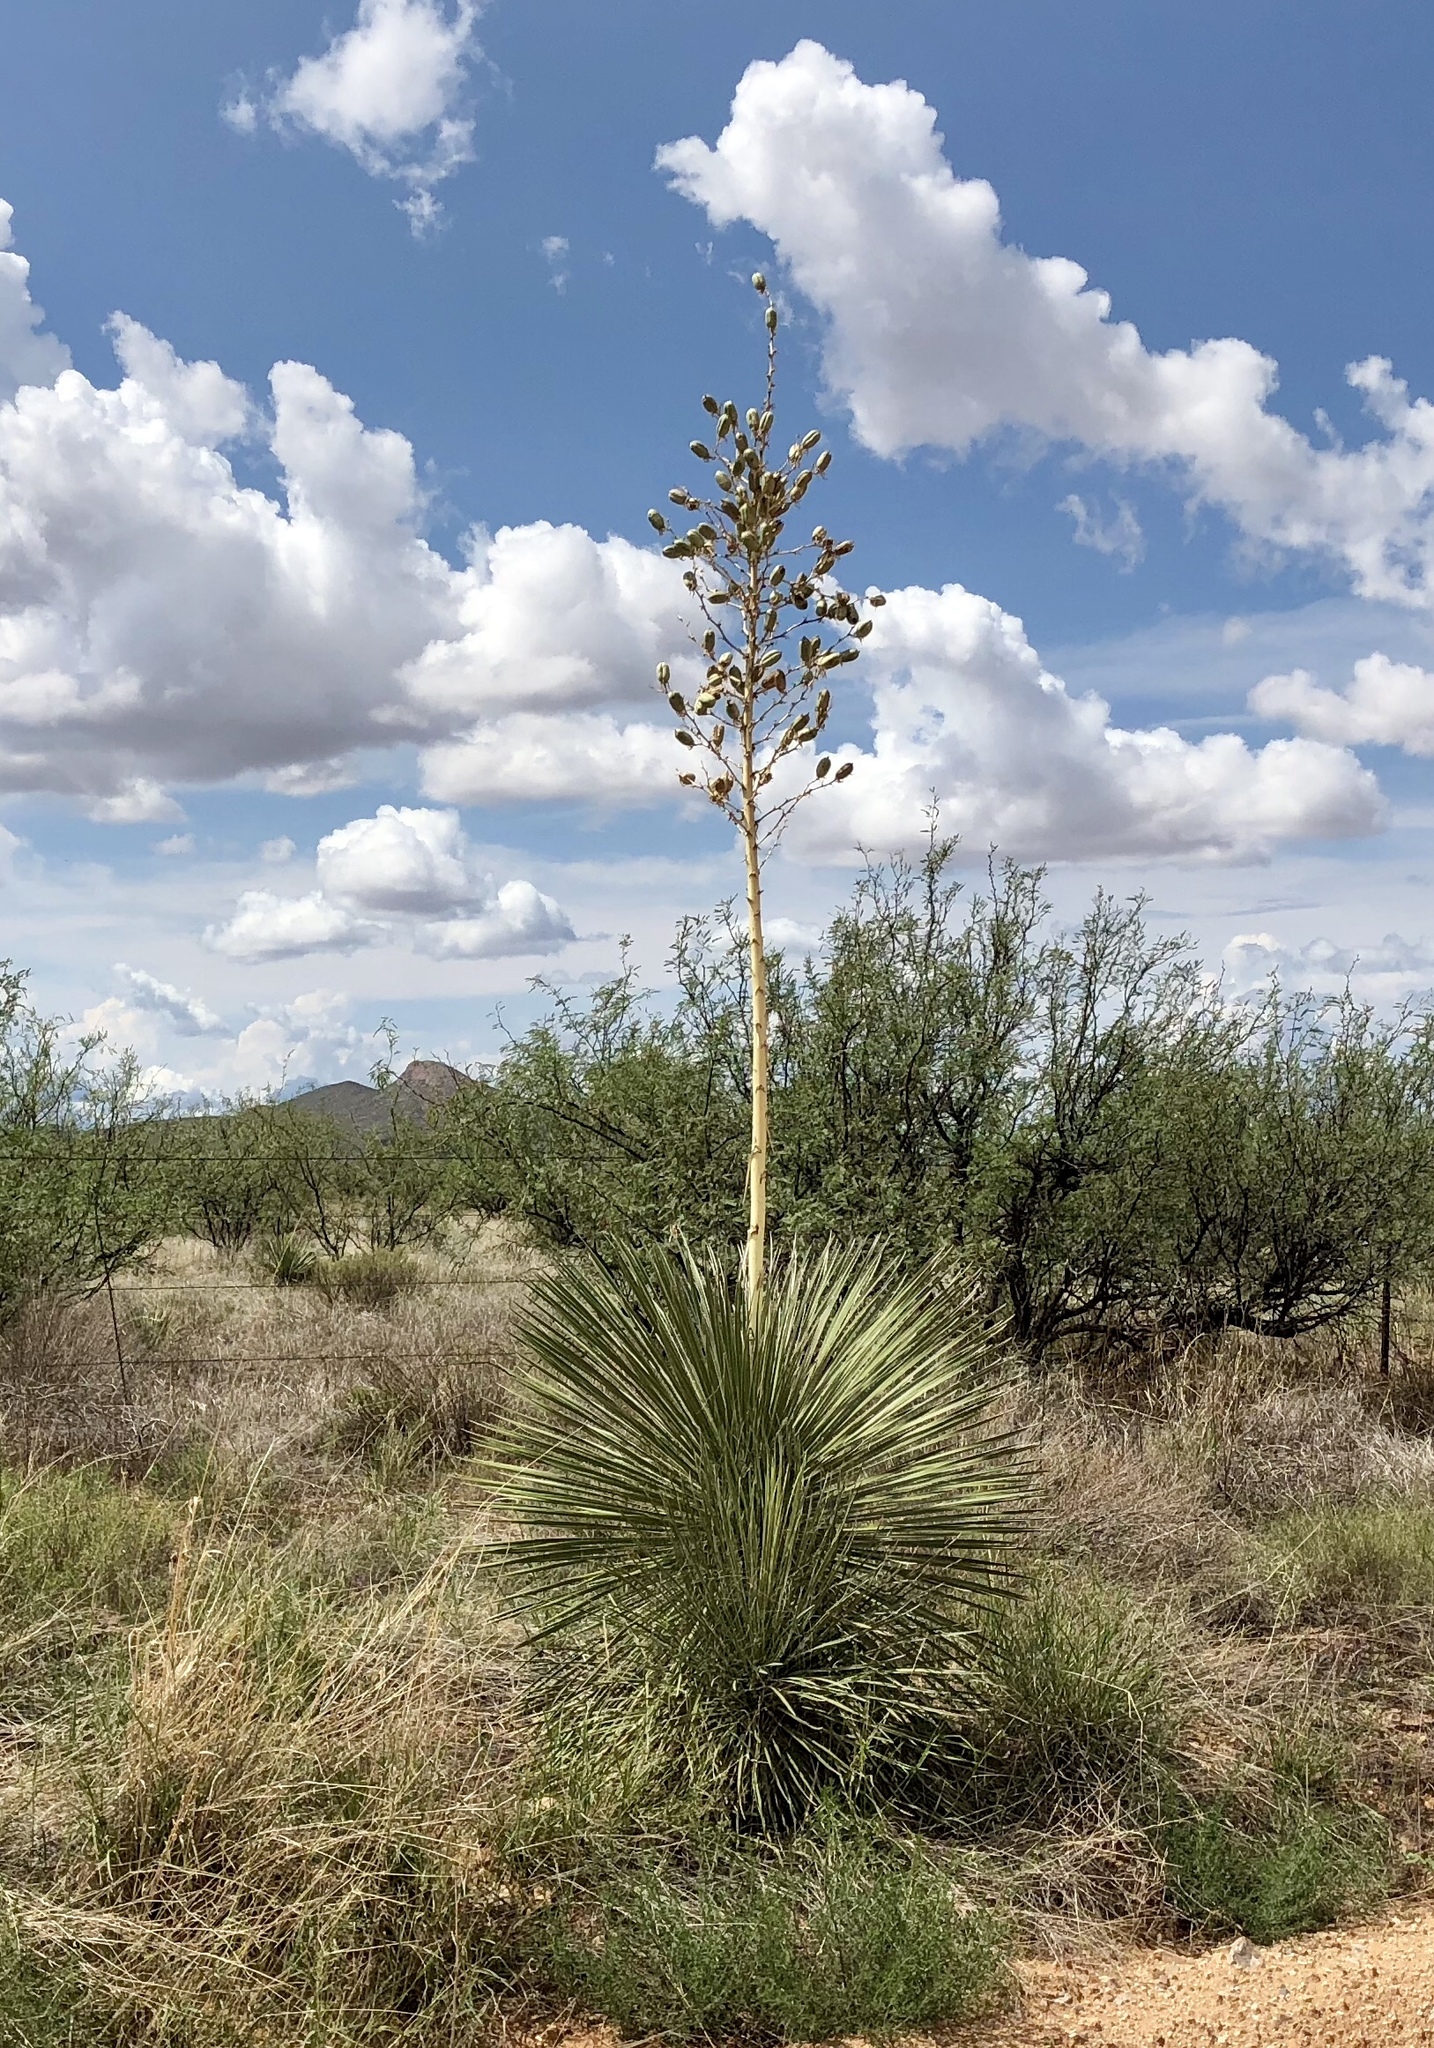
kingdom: Plantae
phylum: Tracheophyta
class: Liliopsida
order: Asparagales
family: Asparagaceae
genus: Yucca
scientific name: Yucca elata
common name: Palmella
